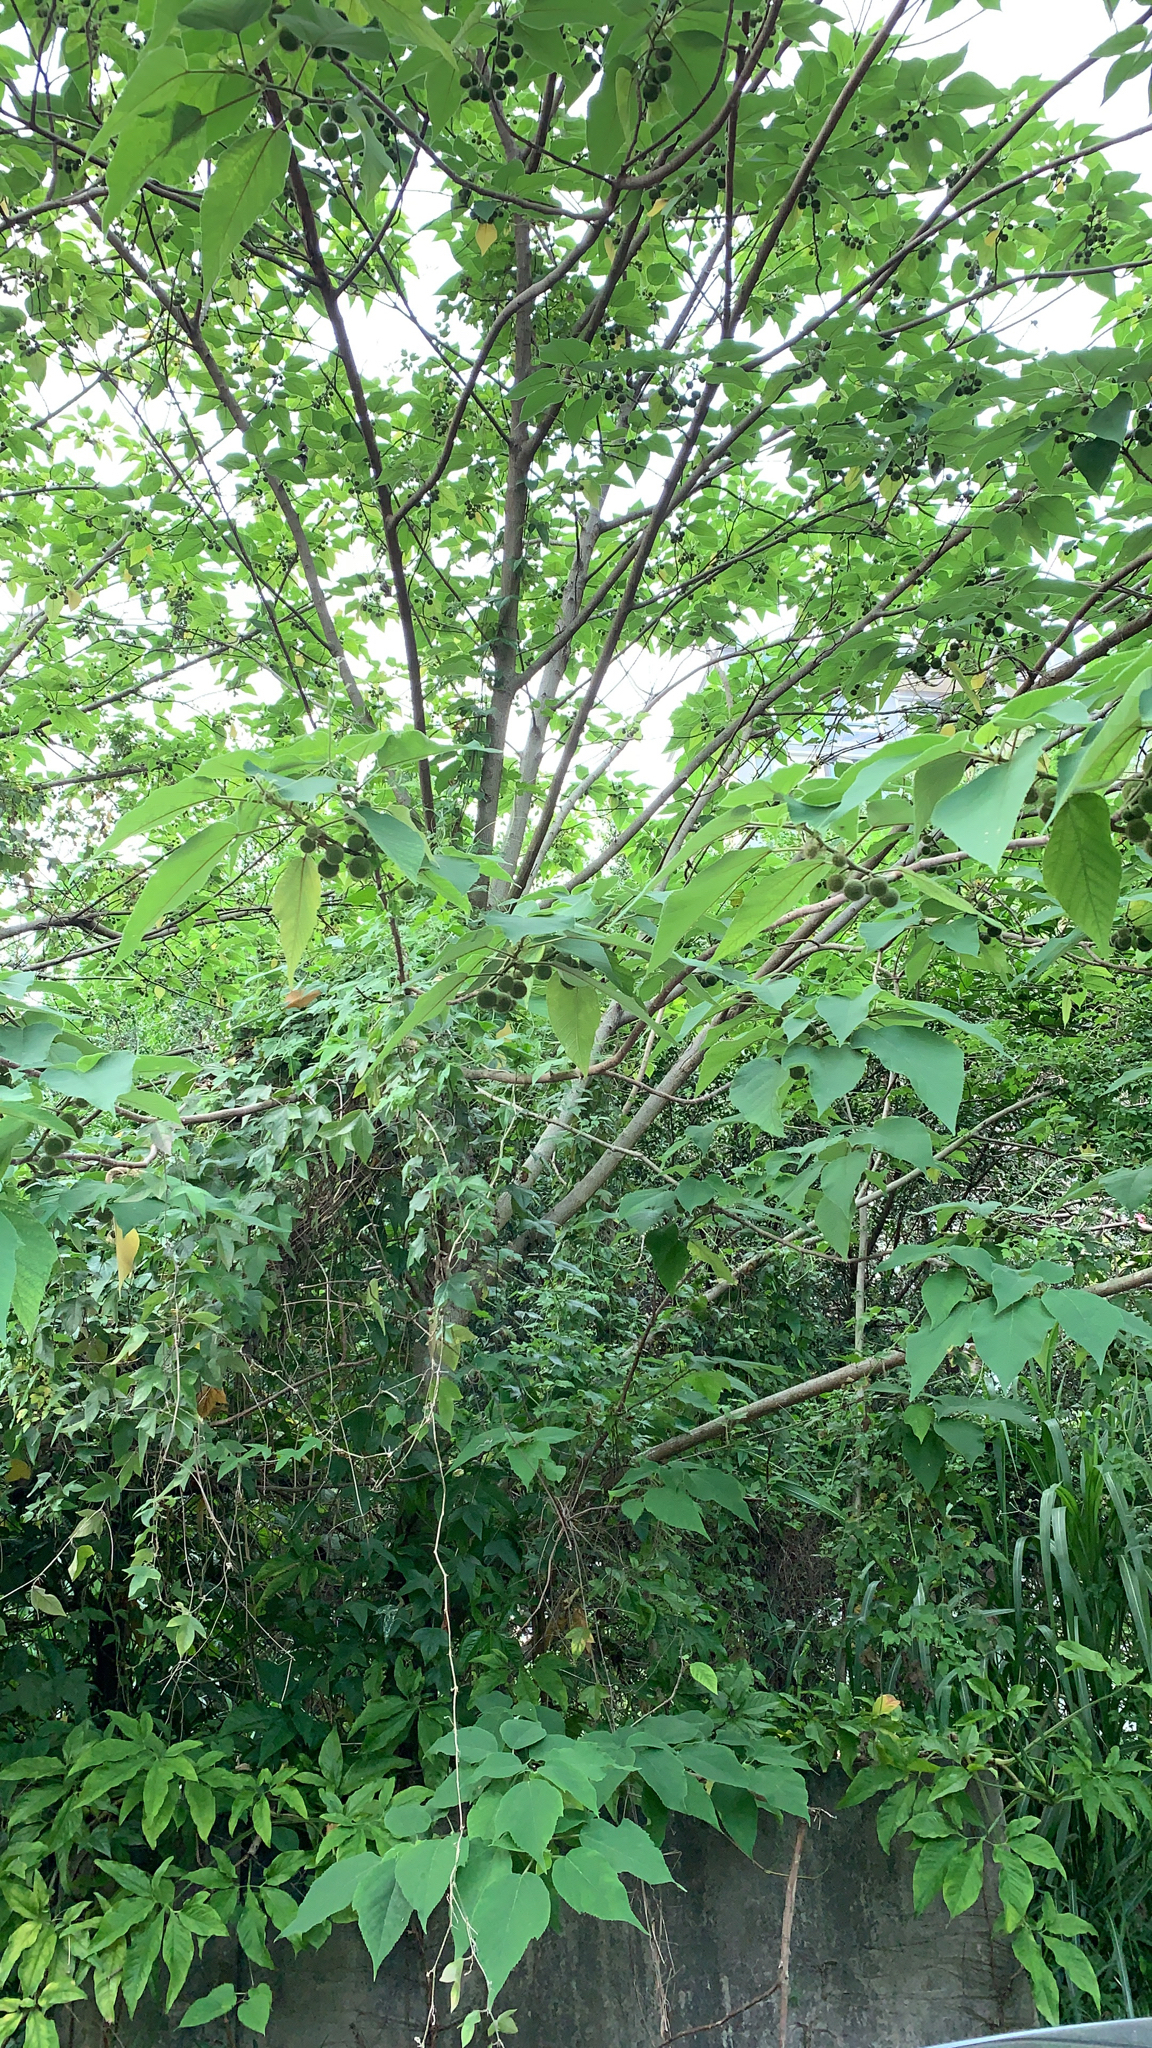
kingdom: Plantae
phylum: Tracheophyta
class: Magnoliopsida
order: Rosales
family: Moraceae
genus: Broussonetia
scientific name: Broussonetia papyrifera
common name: Paper mulberry
